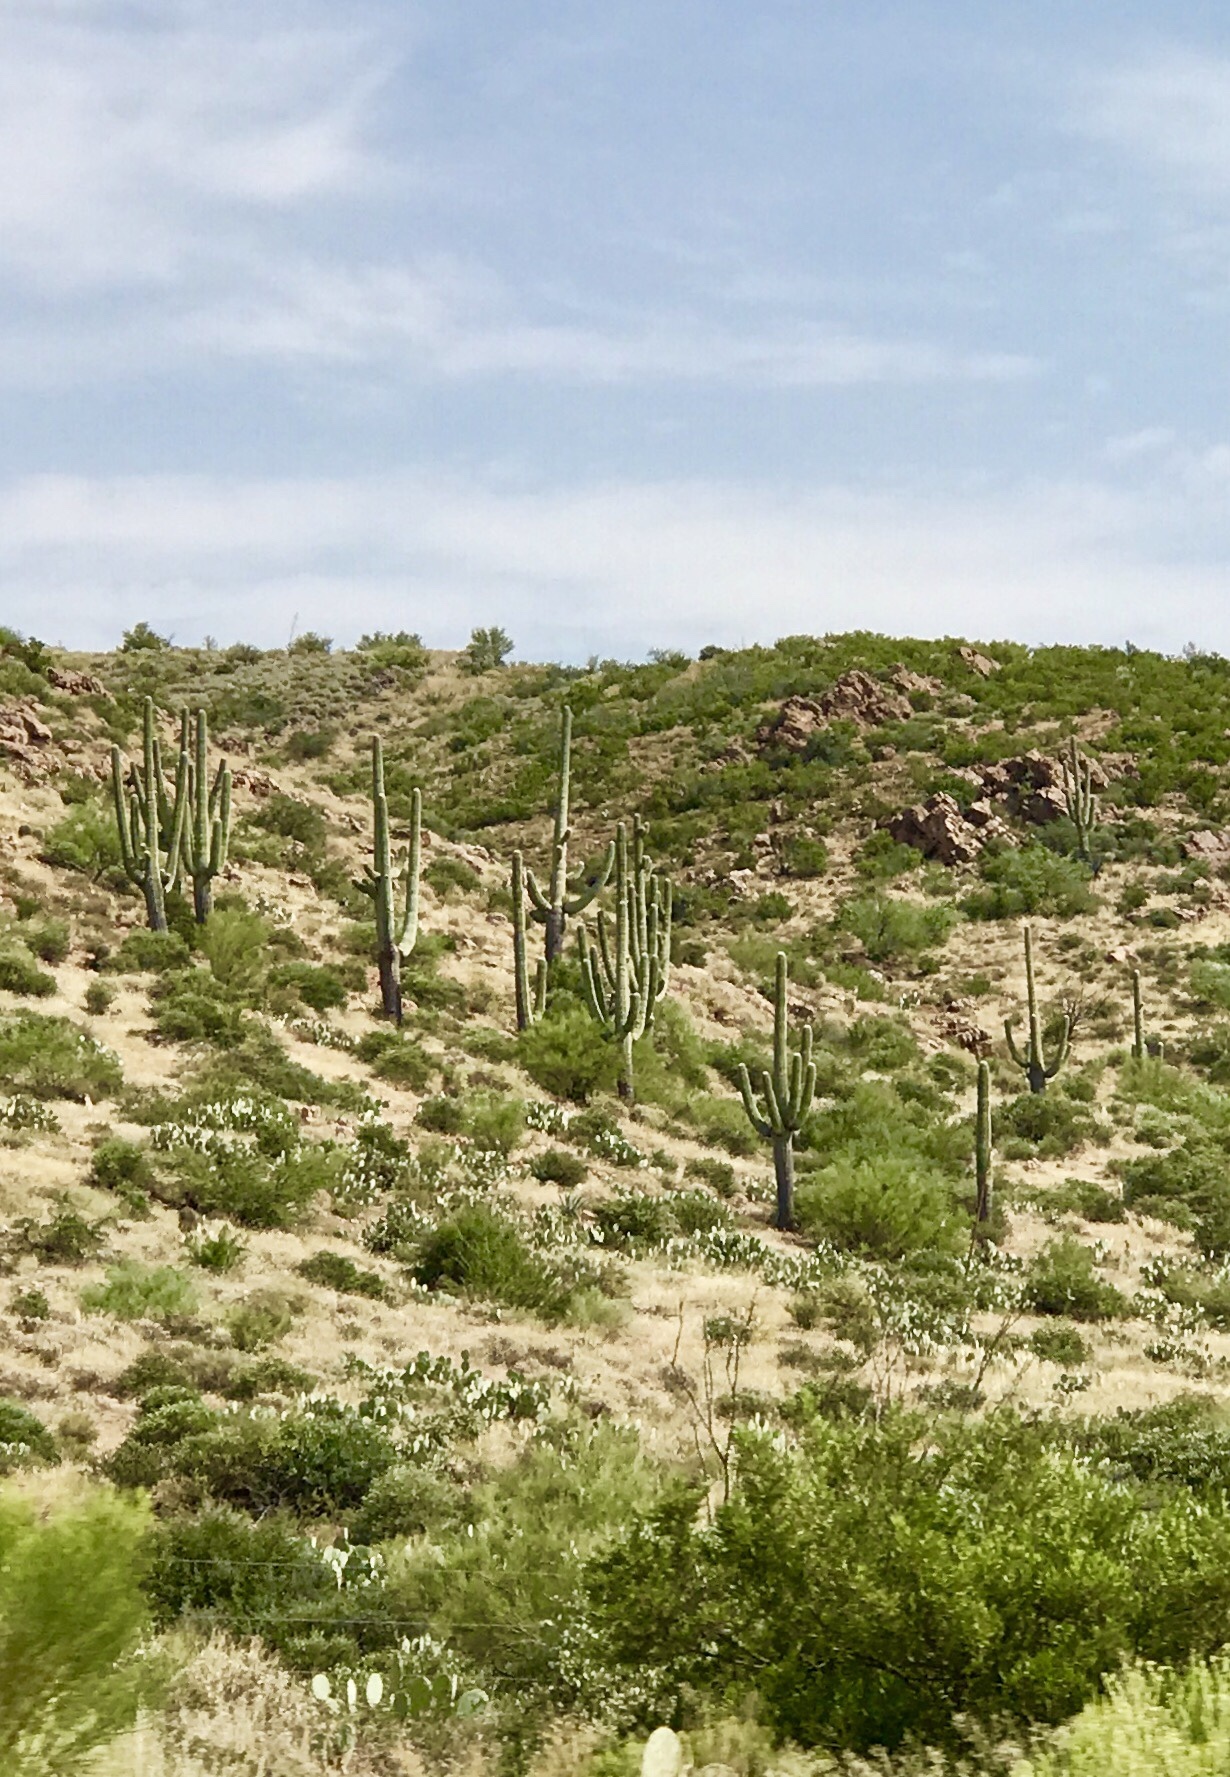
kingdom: Plantae
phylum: Tracheophyta
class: Magnoliopsida
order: Caryophyllales
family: Cactaceae
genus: Carnegiea
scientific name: Carnegiea gigantea
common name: Saguaro
